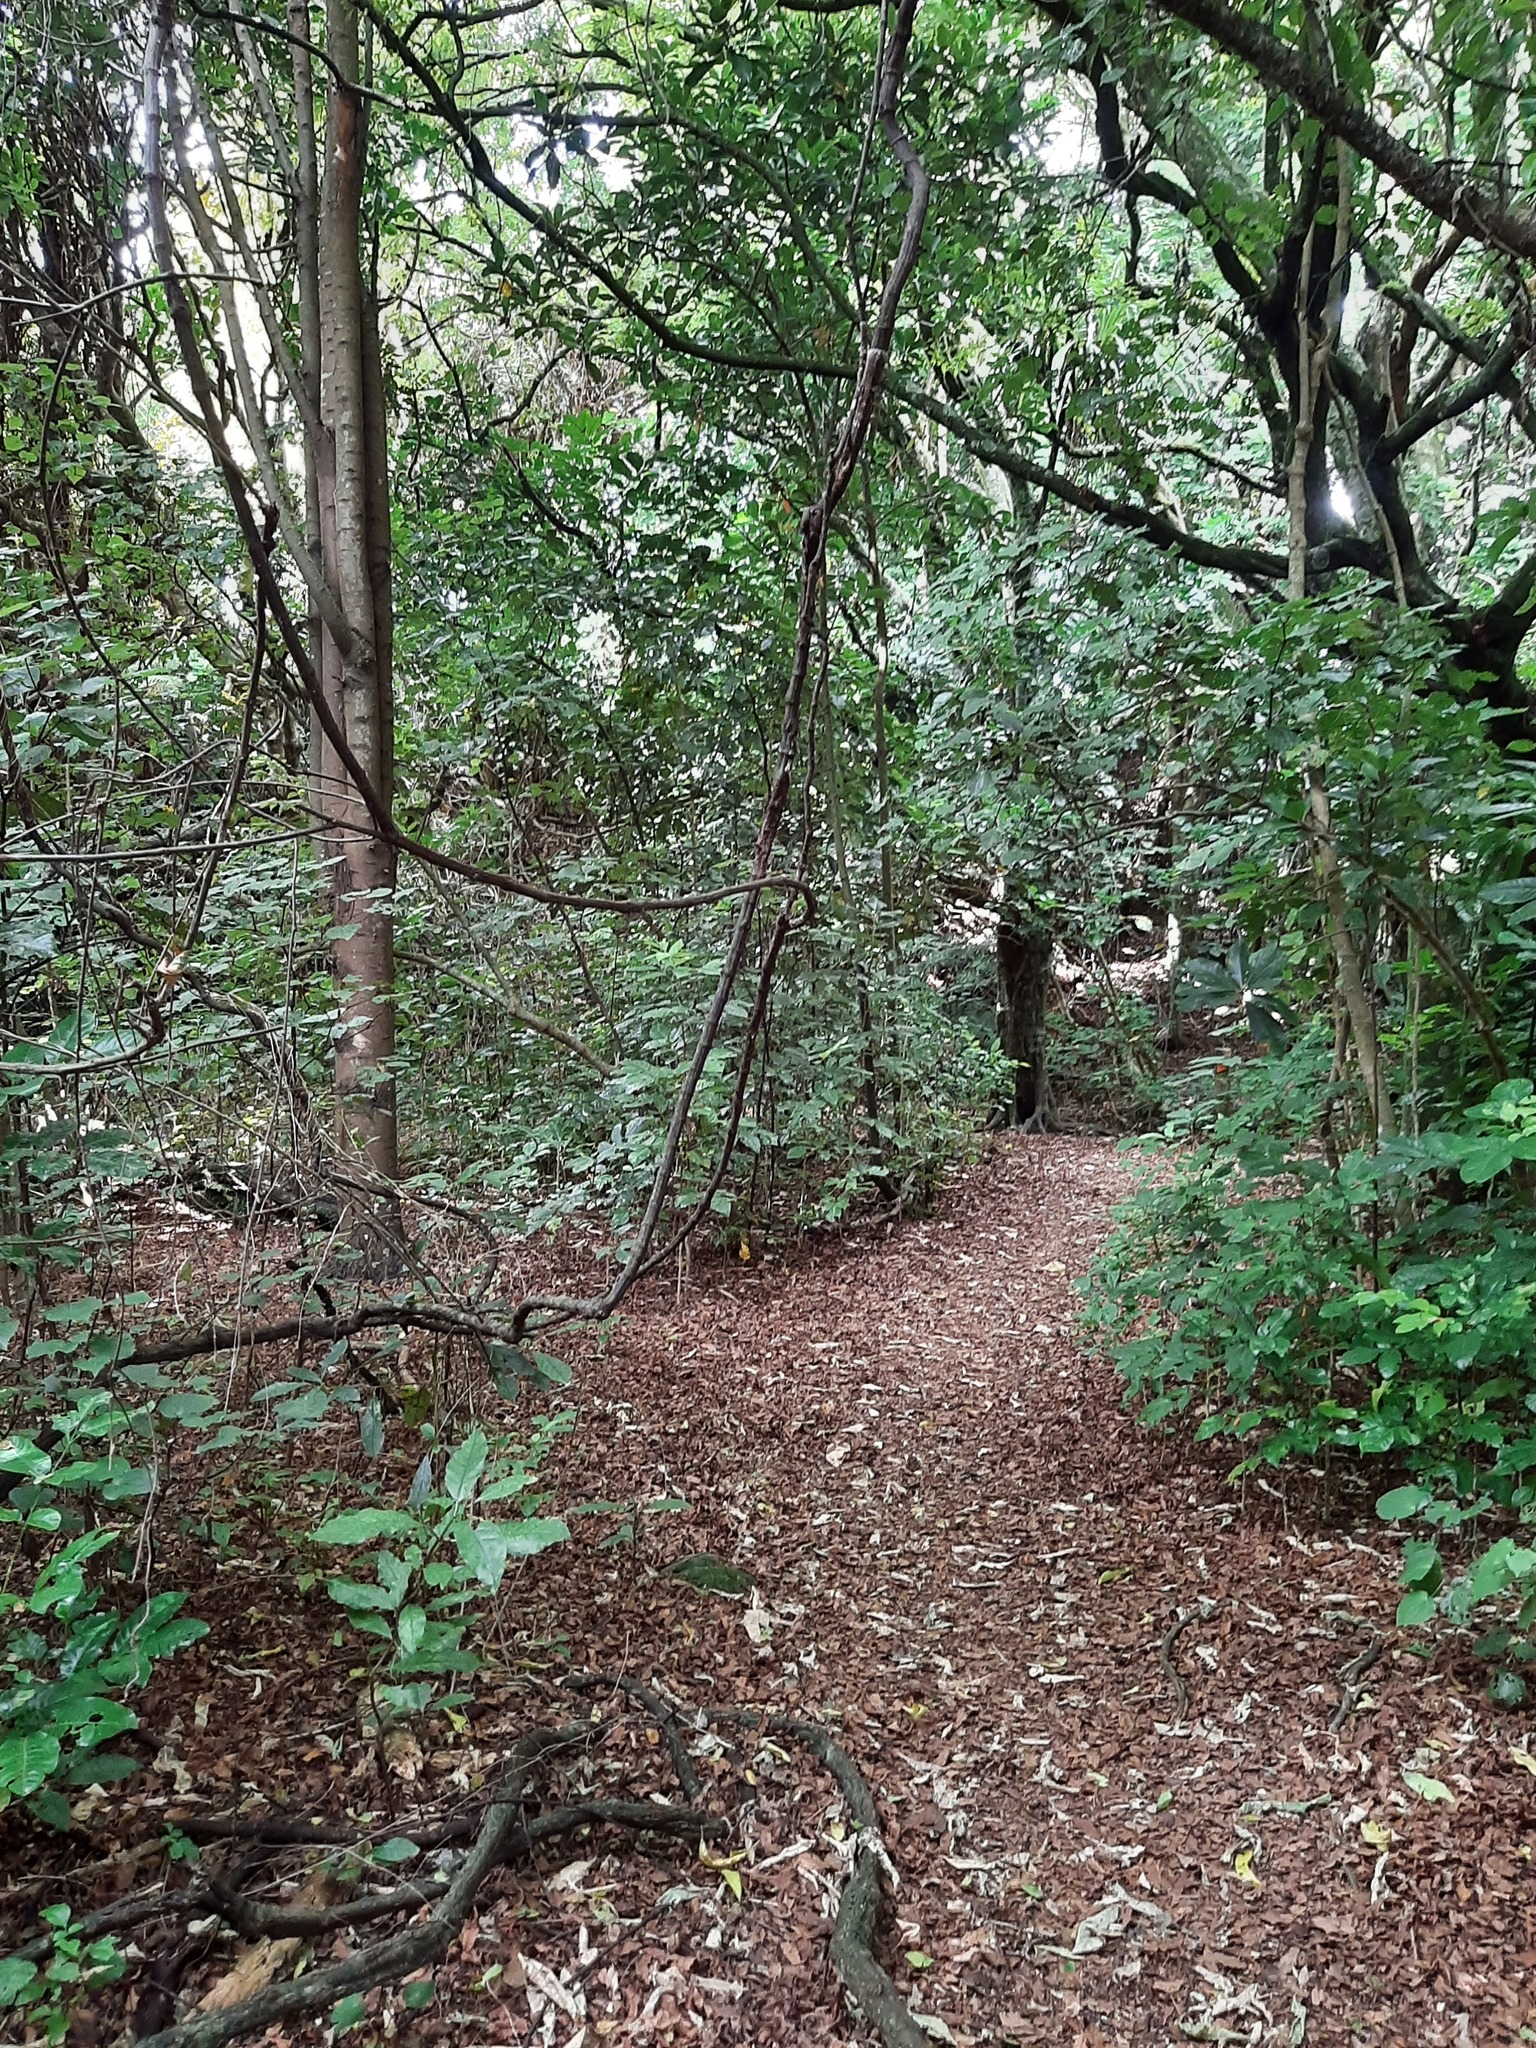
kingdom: Plantae
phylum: Tracheophyta
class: Magnoliopsida
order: Malpighiales
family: Passifloraceae
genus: Passiflora
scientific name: Passiflora tetrandra
